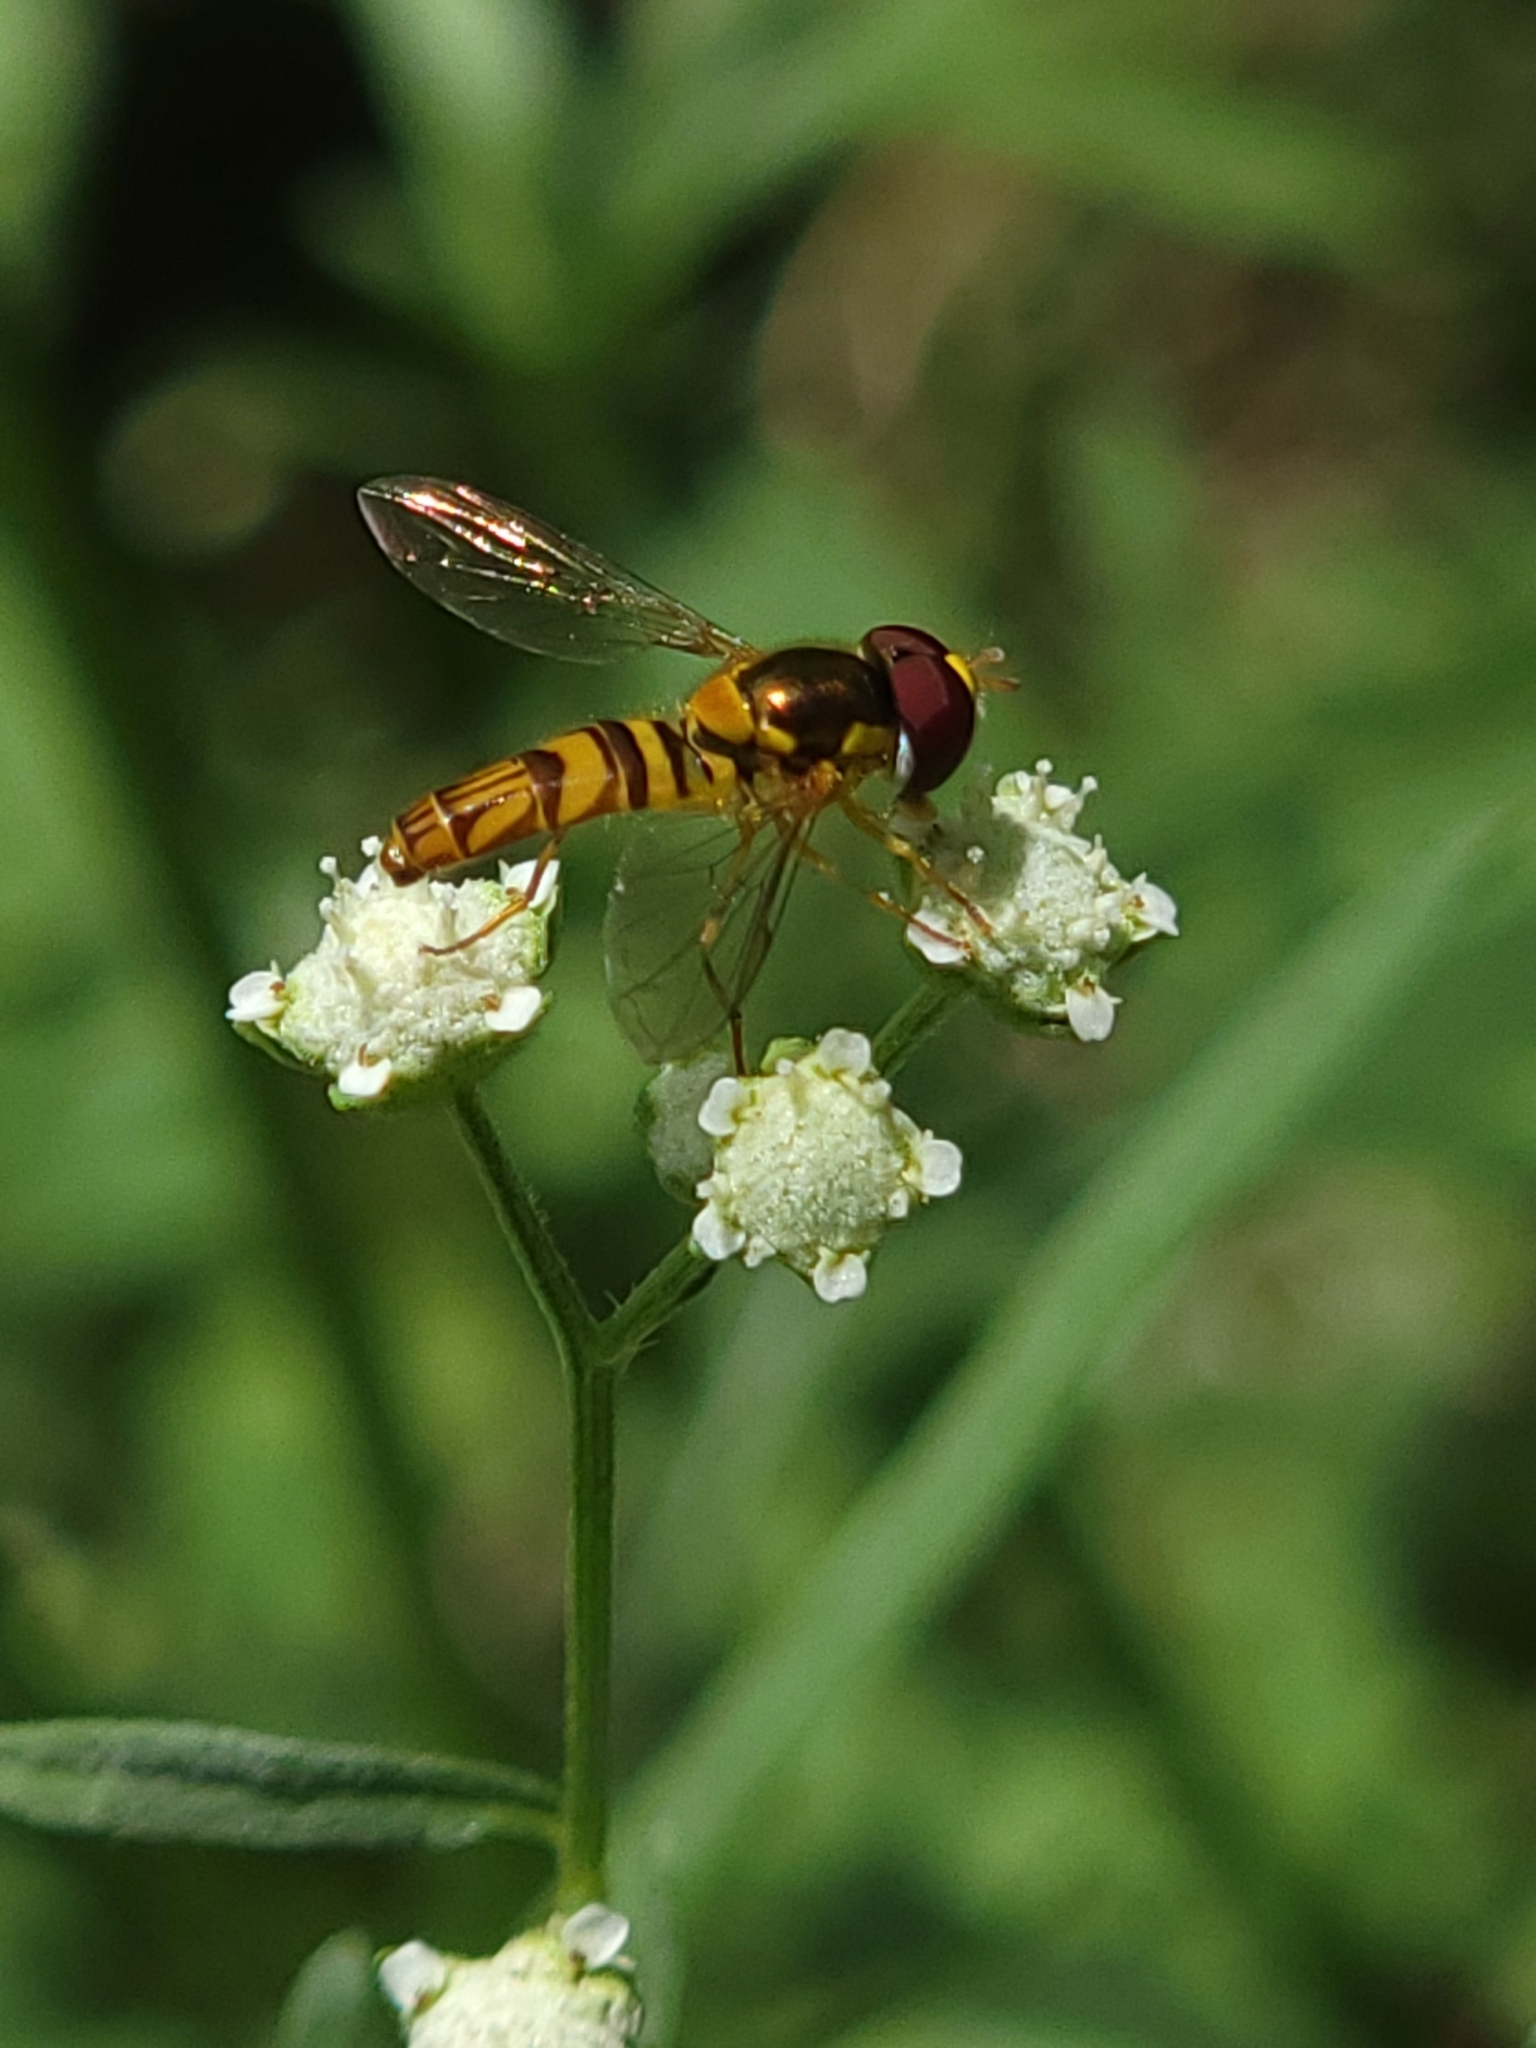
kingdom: Animalia
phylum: Arthropoda
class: Insecta
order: Diptera
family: Syrphidae
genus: Allograpta
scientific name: Allograpta obliqua
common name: Common oblique syrphid
